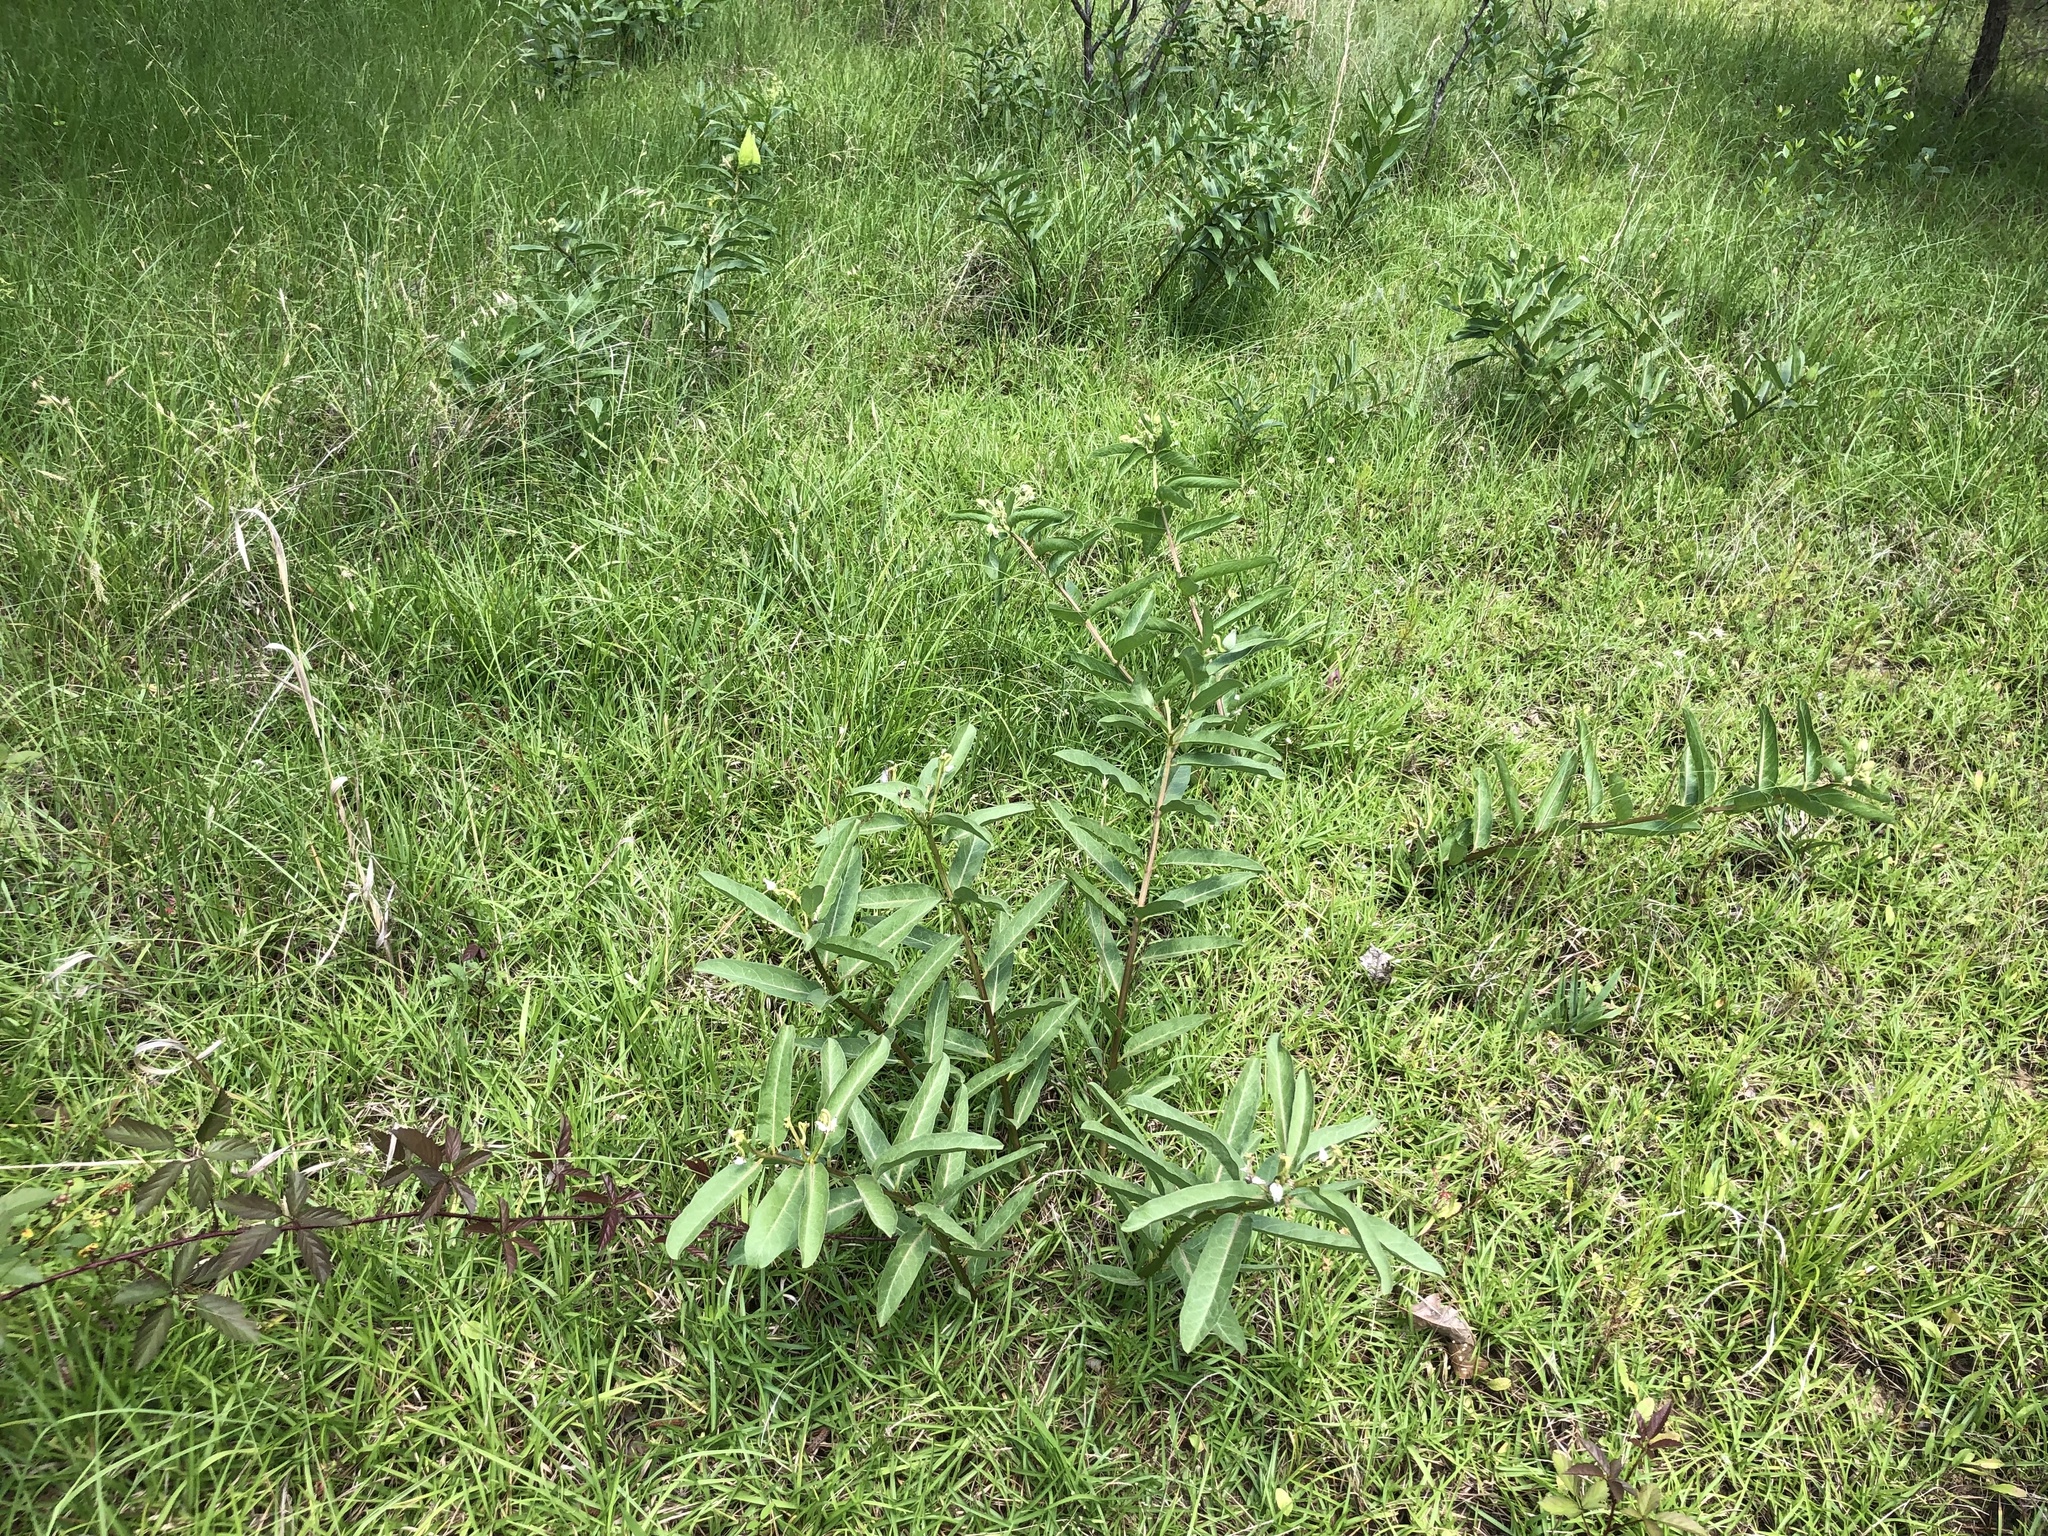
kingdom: Plantae
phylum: Tracheophyta
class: Magnoliopsida
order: Gentianales
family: Apocynaceae
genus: Asclepias
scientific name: Asclepias viridis
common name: Antelope-horns
